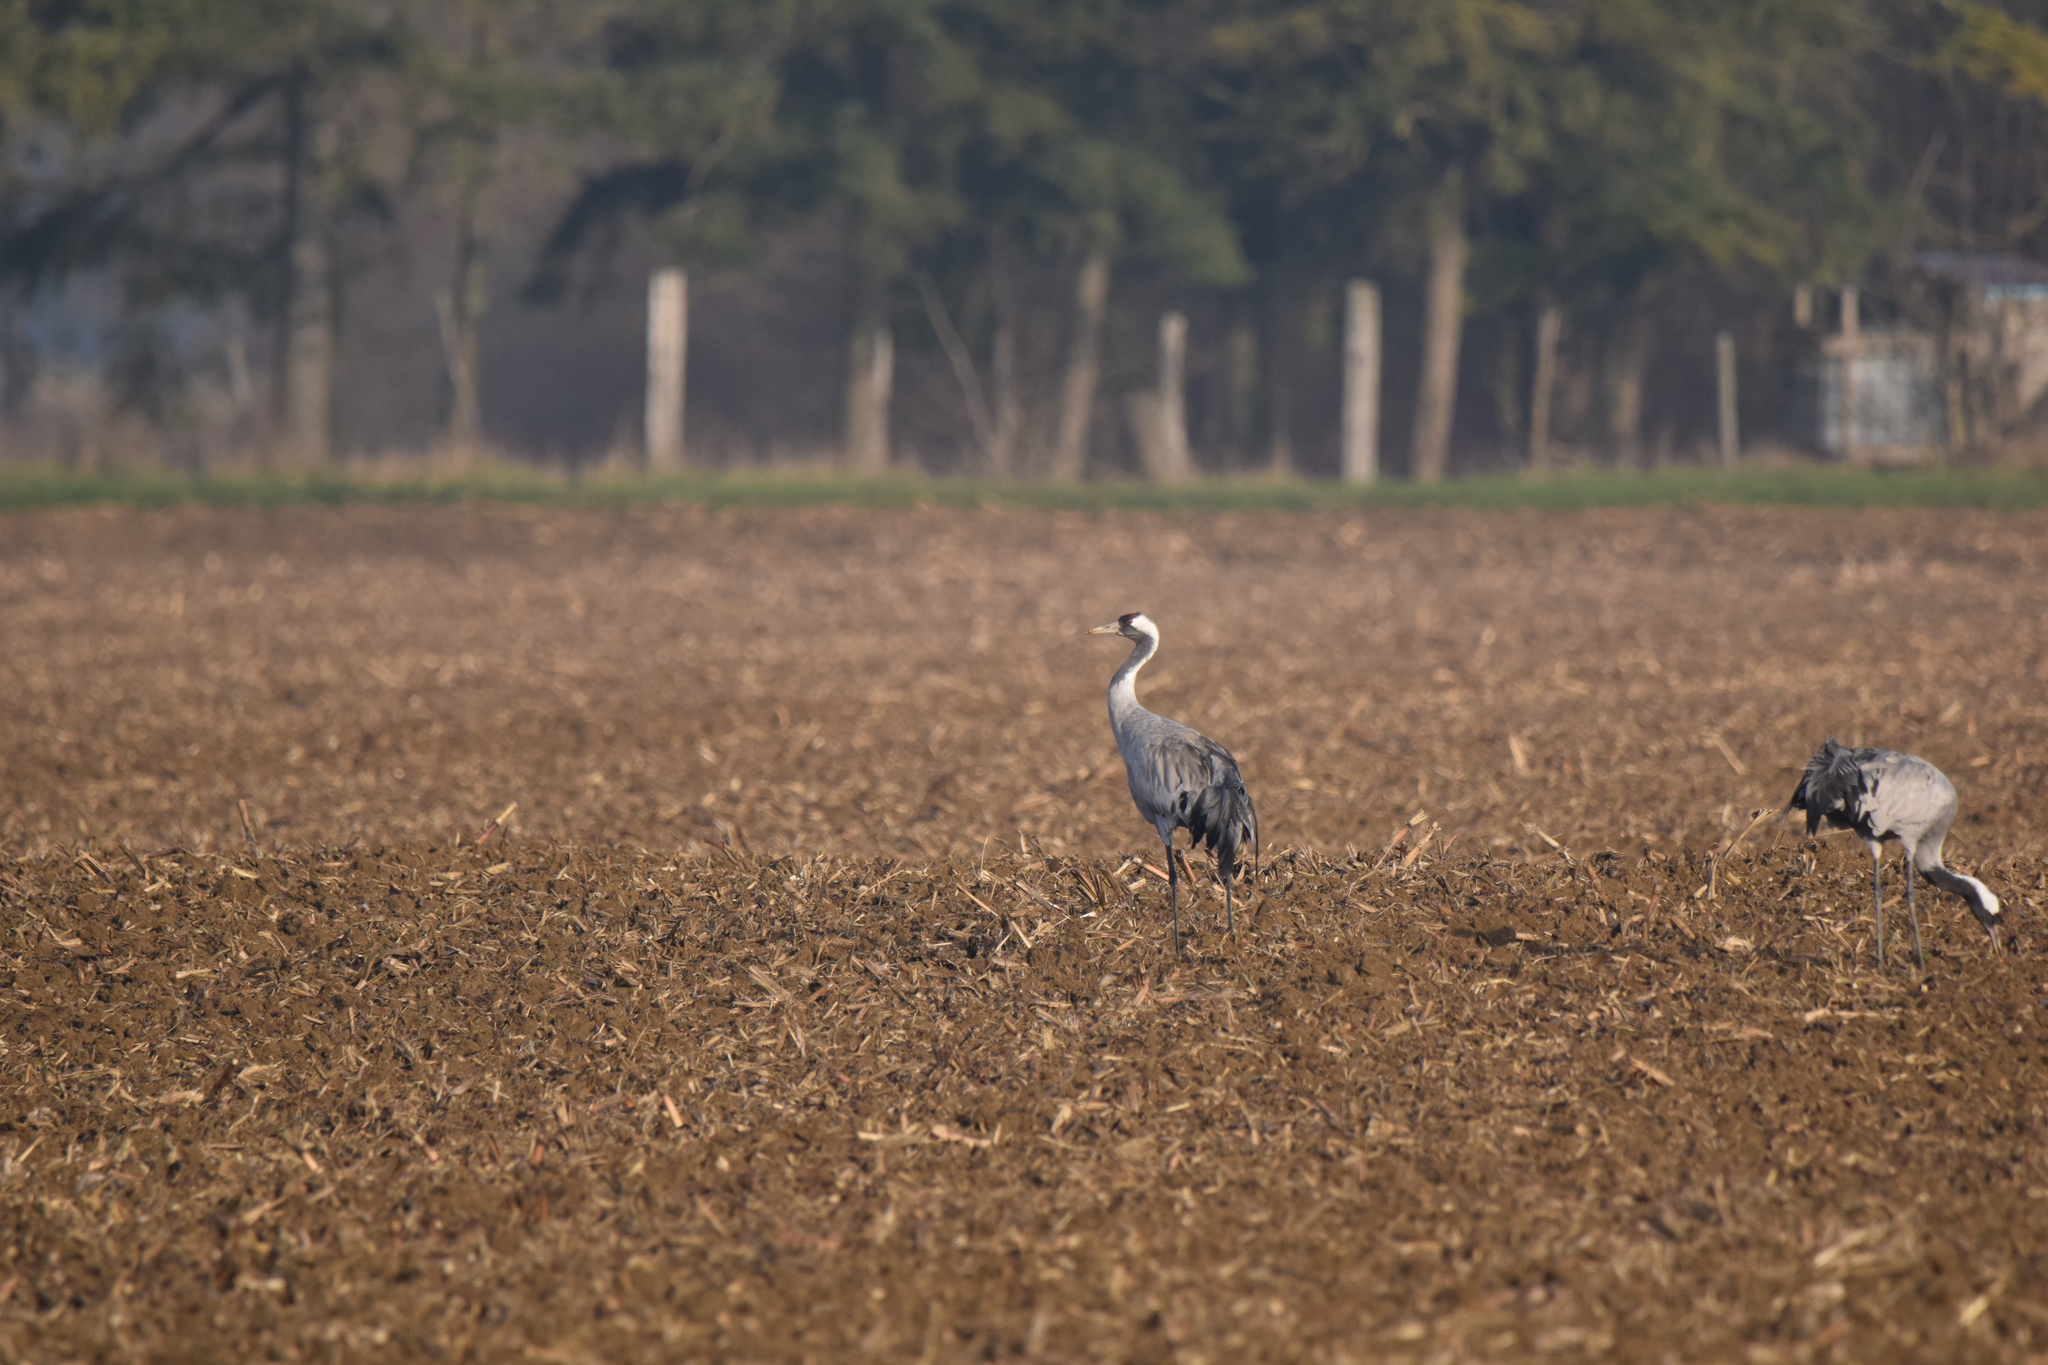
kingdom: Animalia
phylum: Chordata
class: Aves
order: Gruiformes
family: Gruidae
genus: Grus
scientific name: Grus grus
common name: Common crane
